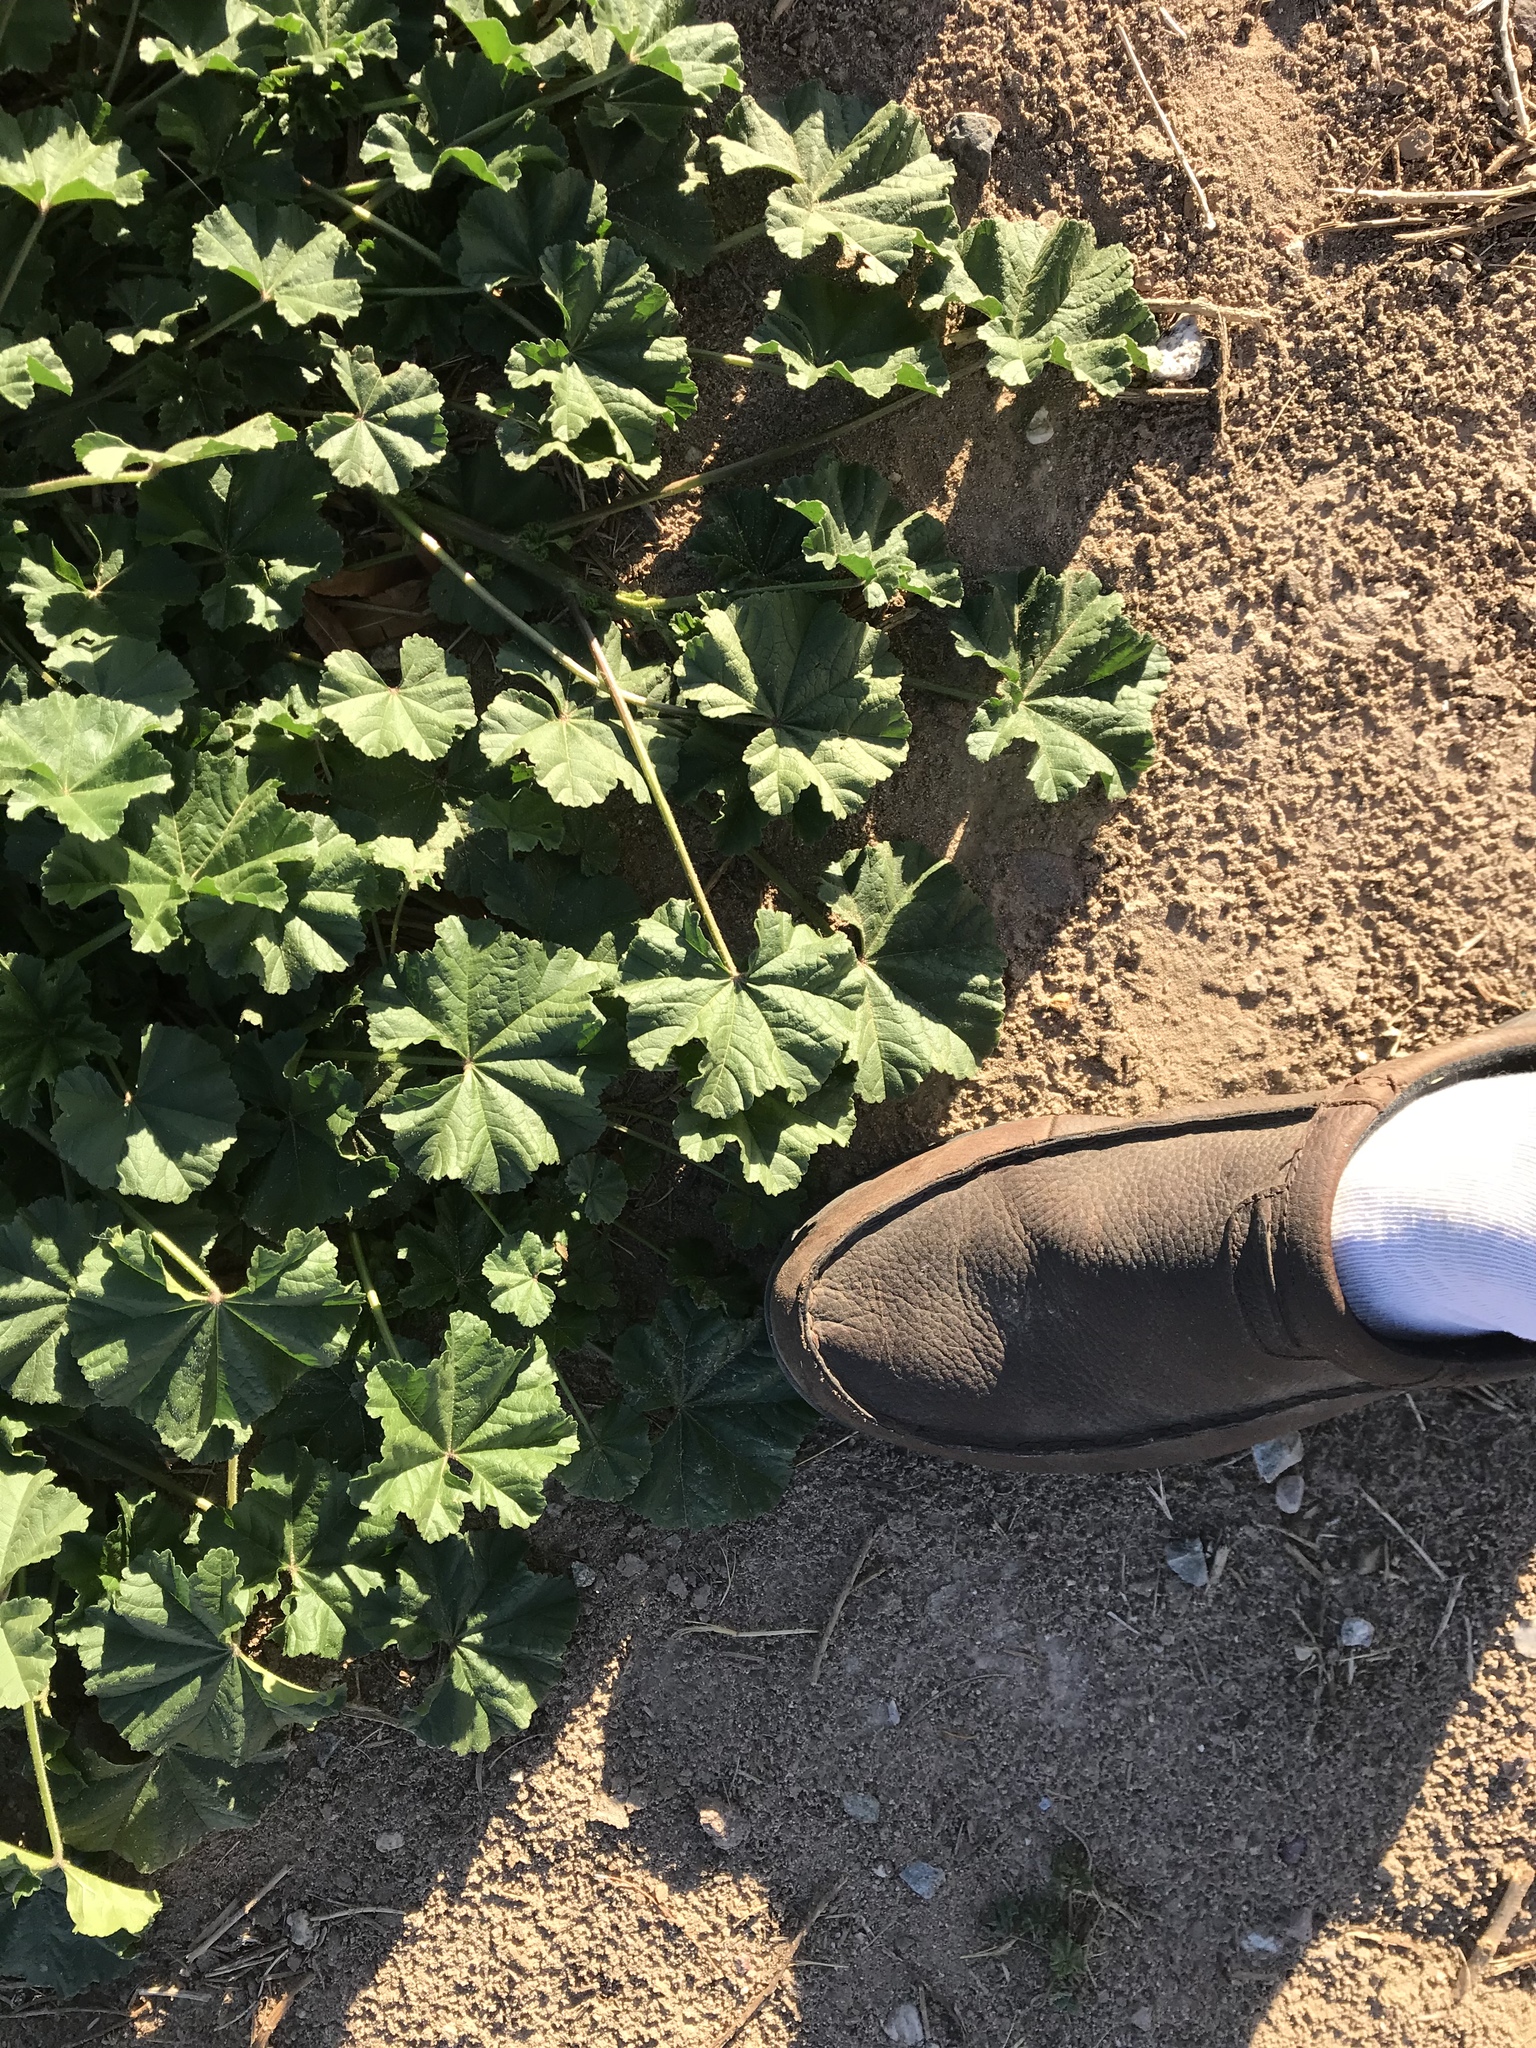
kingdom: Plantae
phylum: Tracheophyta
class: Magnoliopsida
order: Malvales
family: Malvaceae
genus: Malva
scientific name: Malva parviflora
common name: Least mallow
